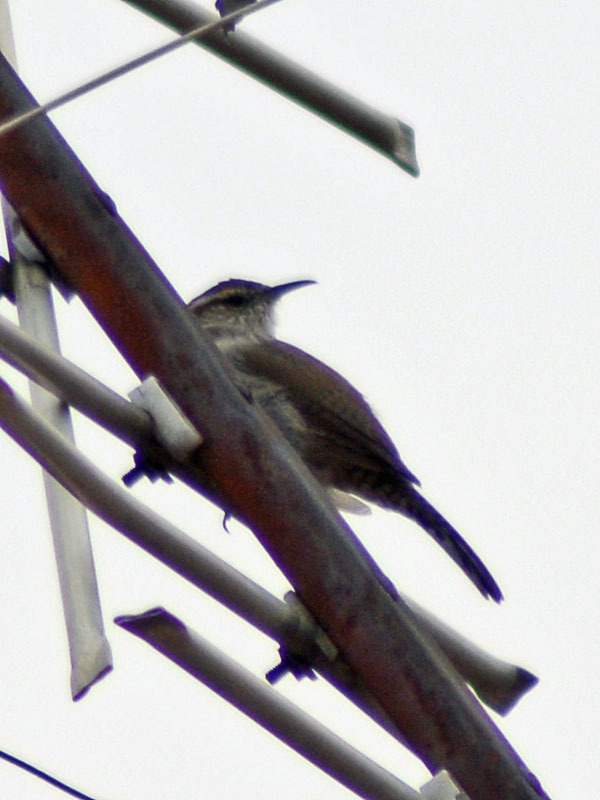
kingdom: Animalia
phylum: Chordata
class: Aves
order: Passeriformes
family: Troglodytidae
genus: Thryomanes
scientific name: Thryomanes bewickii
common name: Bewick's wren
